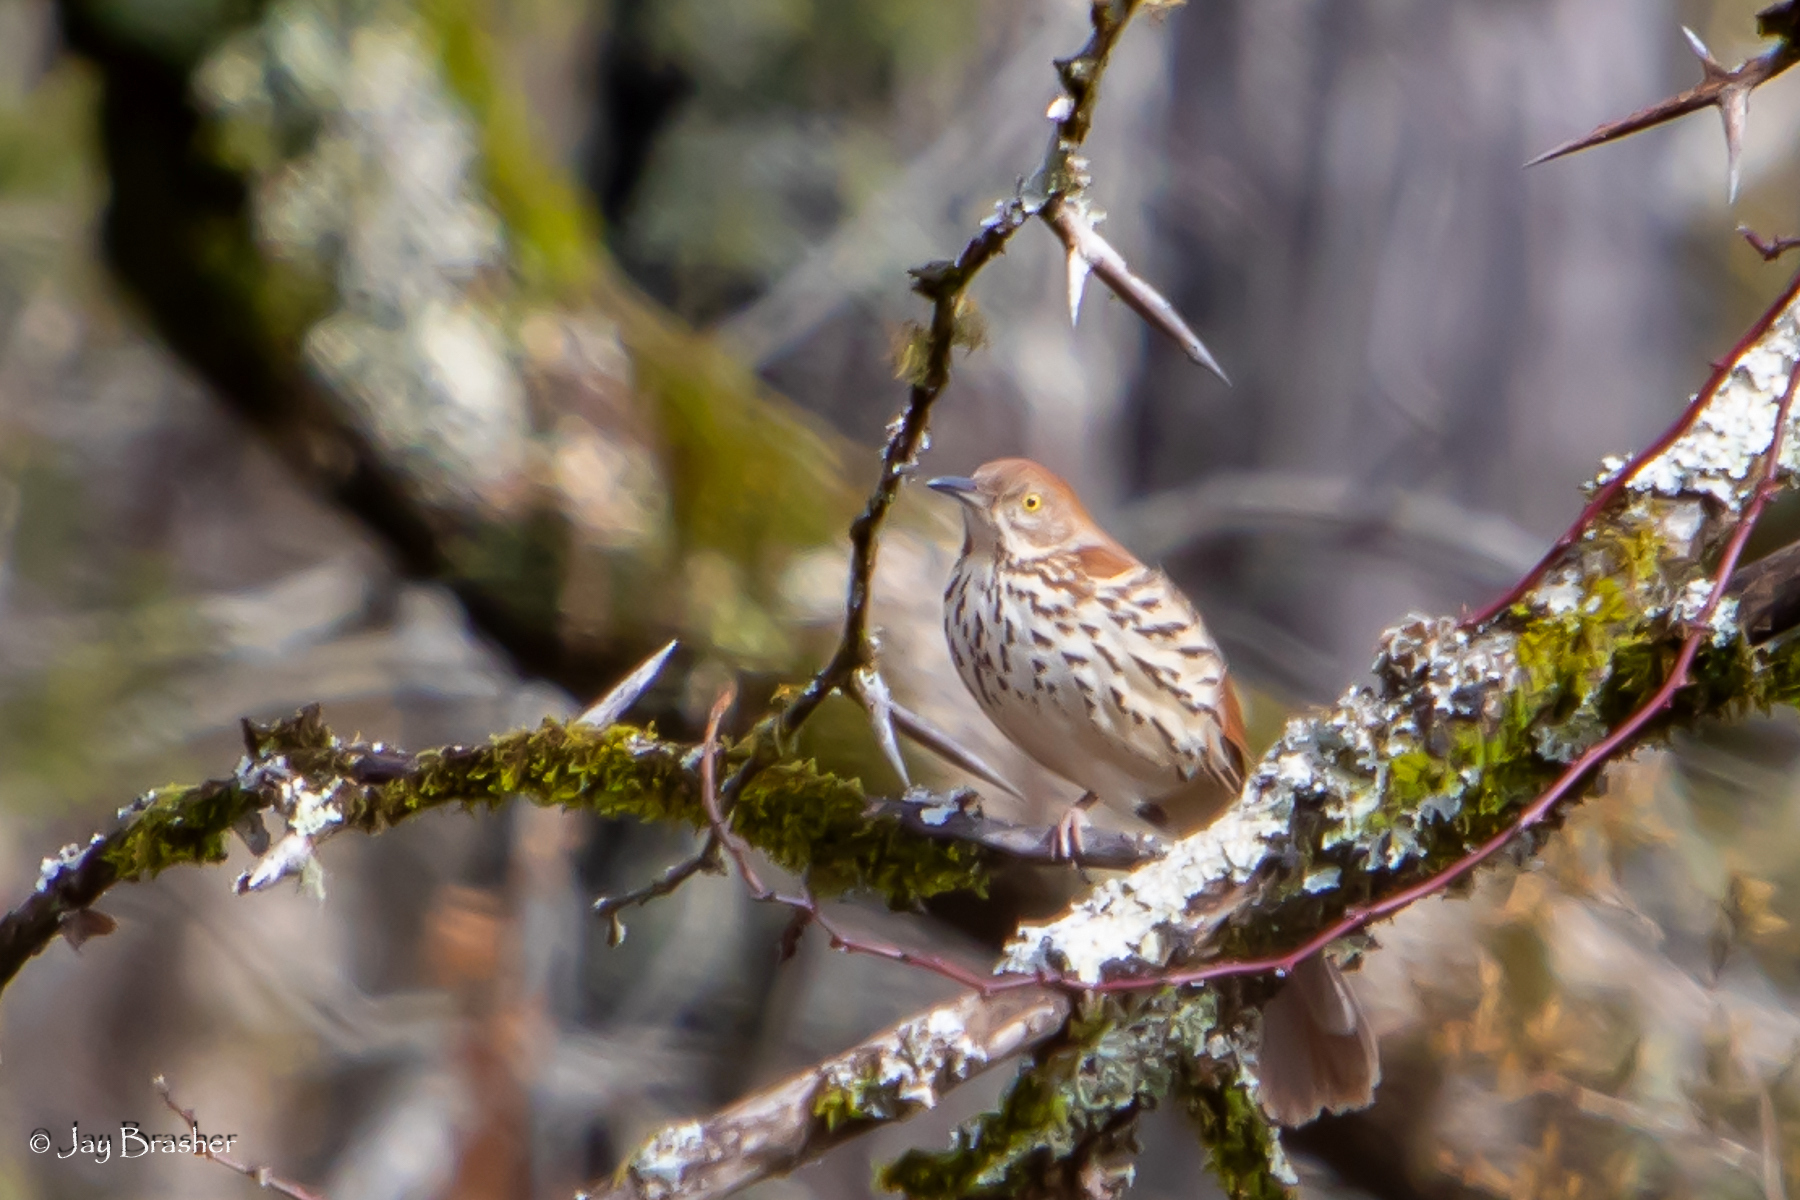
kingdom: Animalia
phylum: Chordata
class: Aves
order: Passeriformes
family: Mimidae
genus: Toxostoma
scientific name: Toxostoma rufum
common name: Brown thrasher
